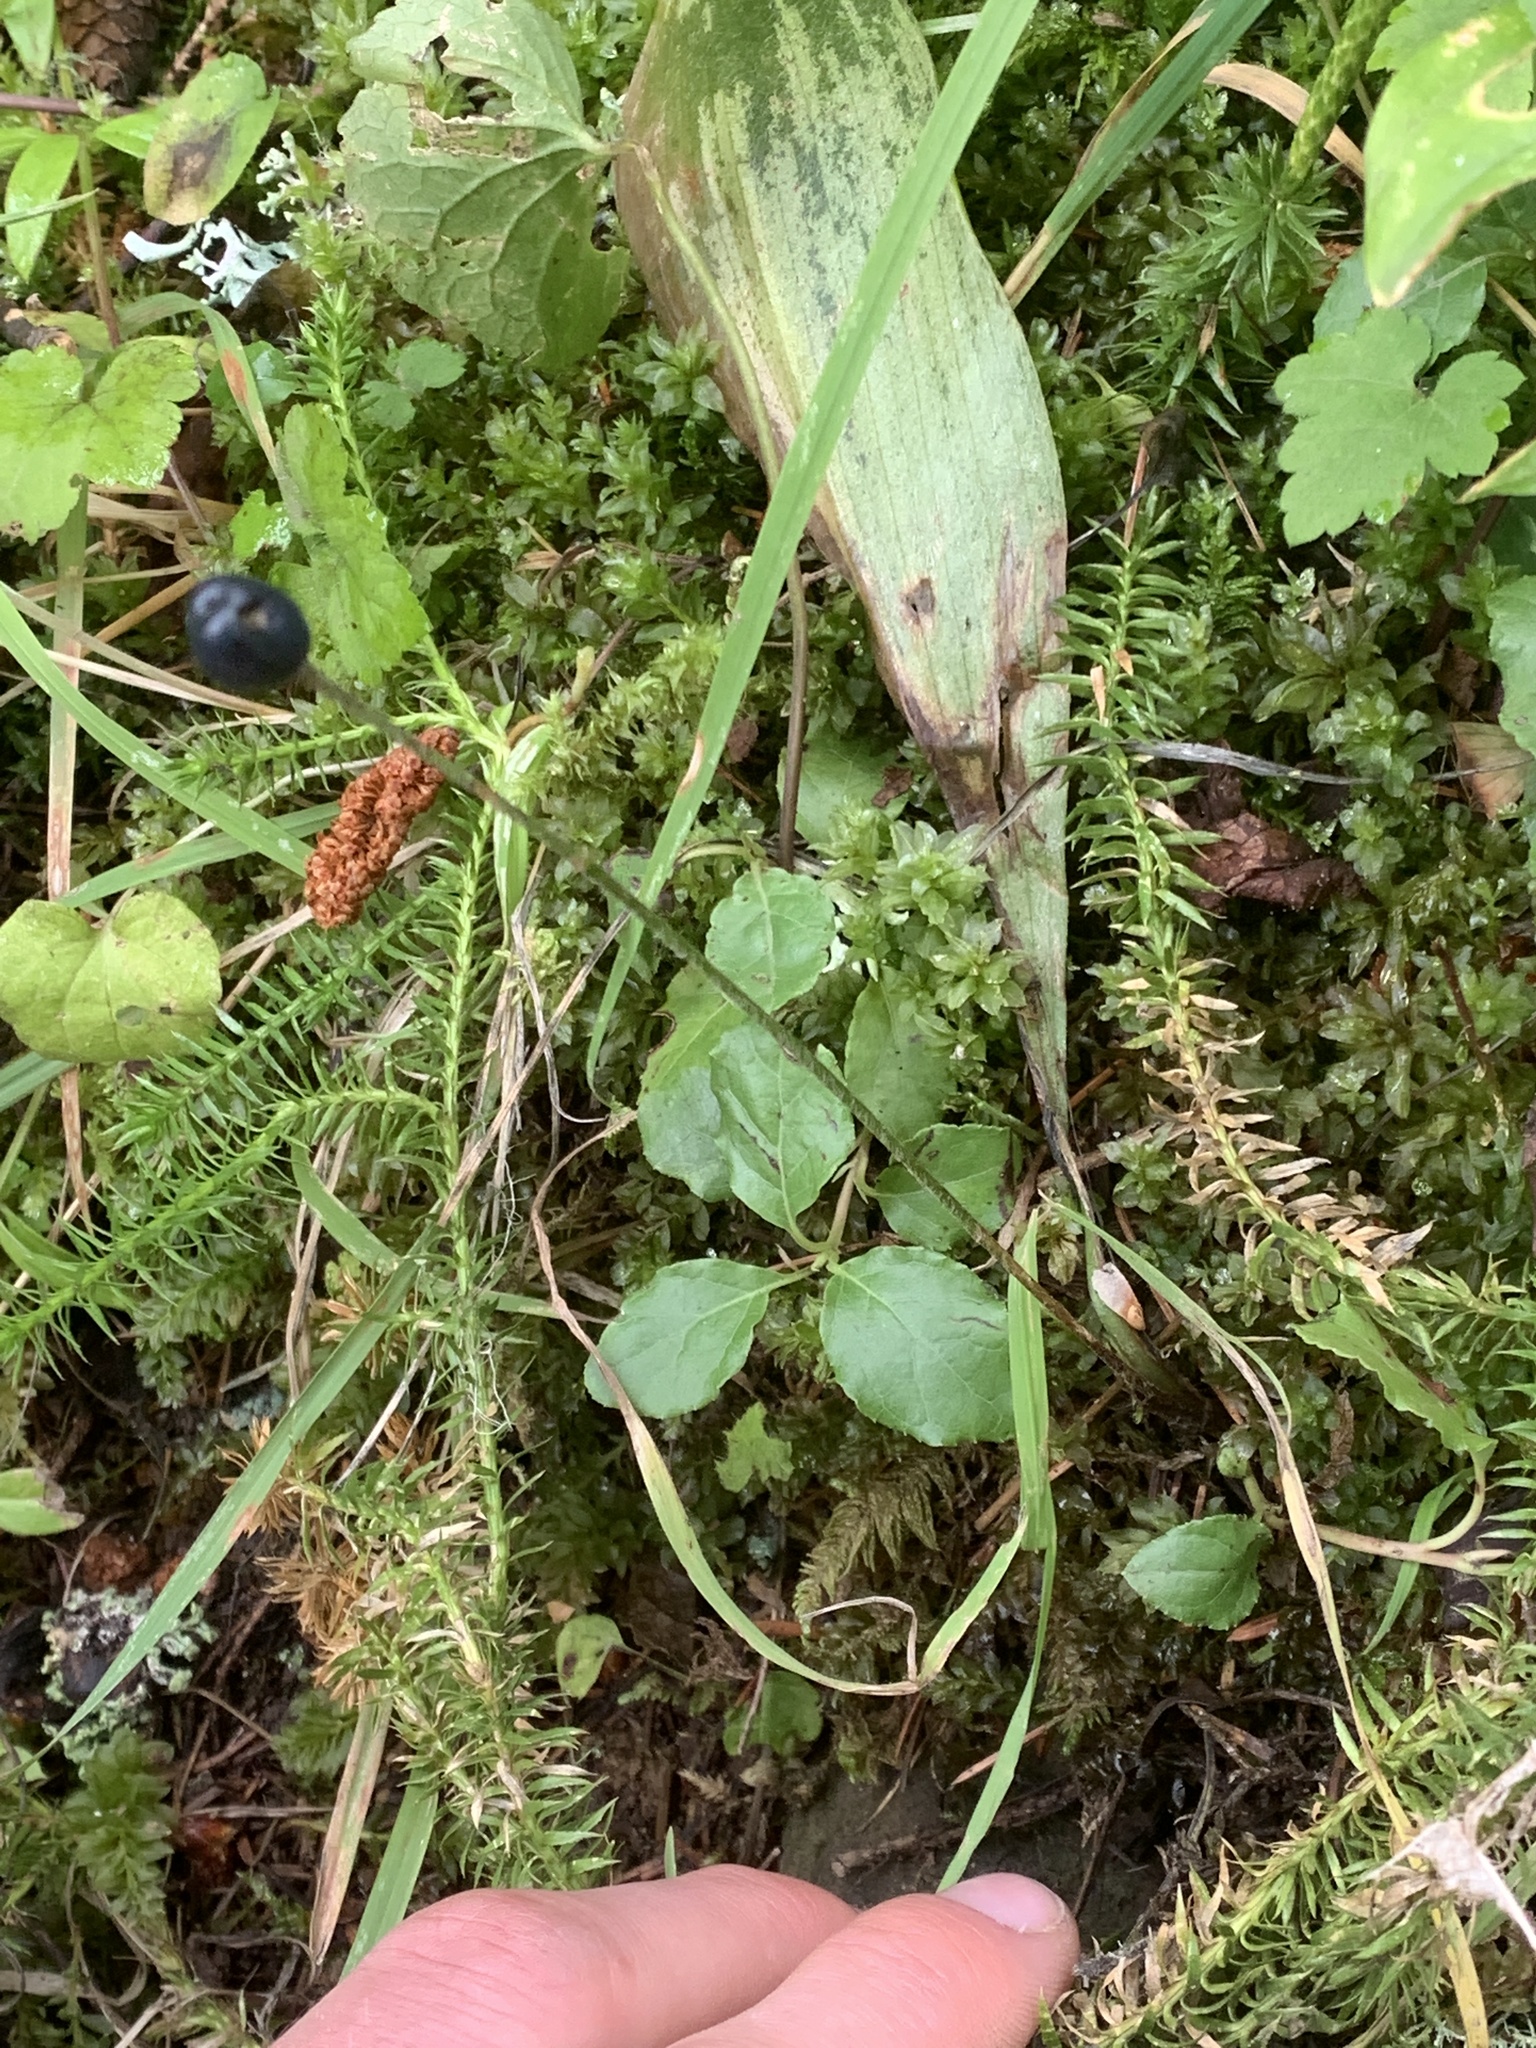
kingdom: Plantae
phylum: Tracheophyta
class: Liliopsida
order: Liliales
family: Liliaceae
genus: Clintonia
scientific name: Clintonia uniflora
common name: Queen's cup
